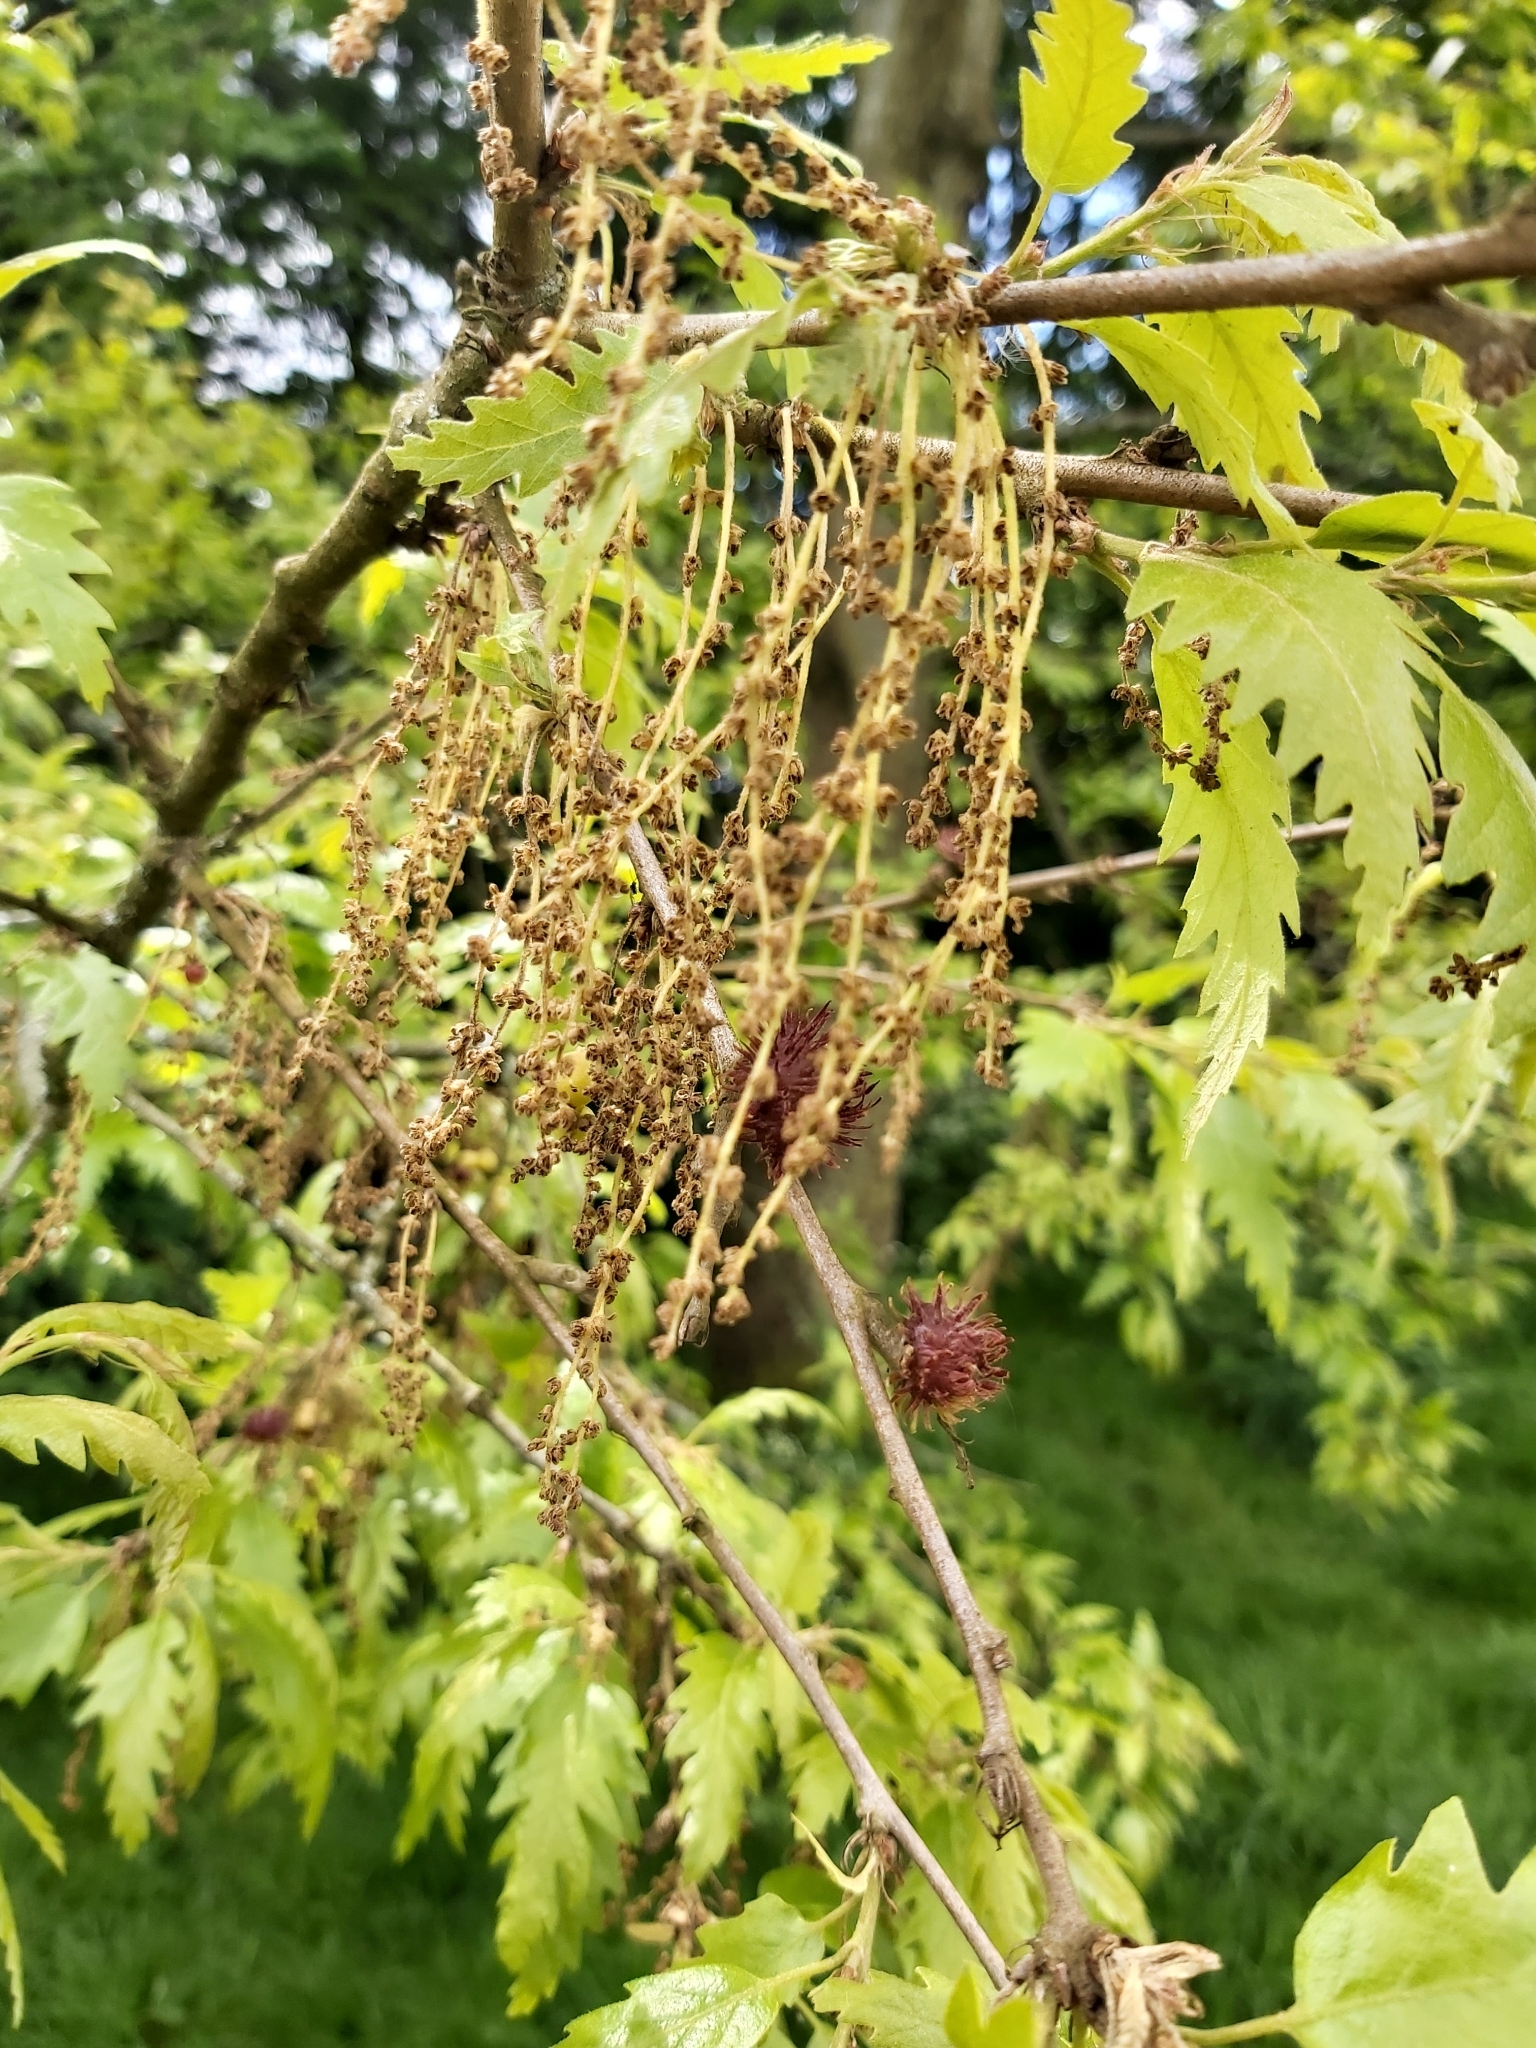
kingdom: Plantae
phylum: Tracheophyta
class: Magnoliopsida
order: Fagales
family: Fagaceae
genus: Quercus
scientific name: Quercus cerris
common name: Turkey oak
